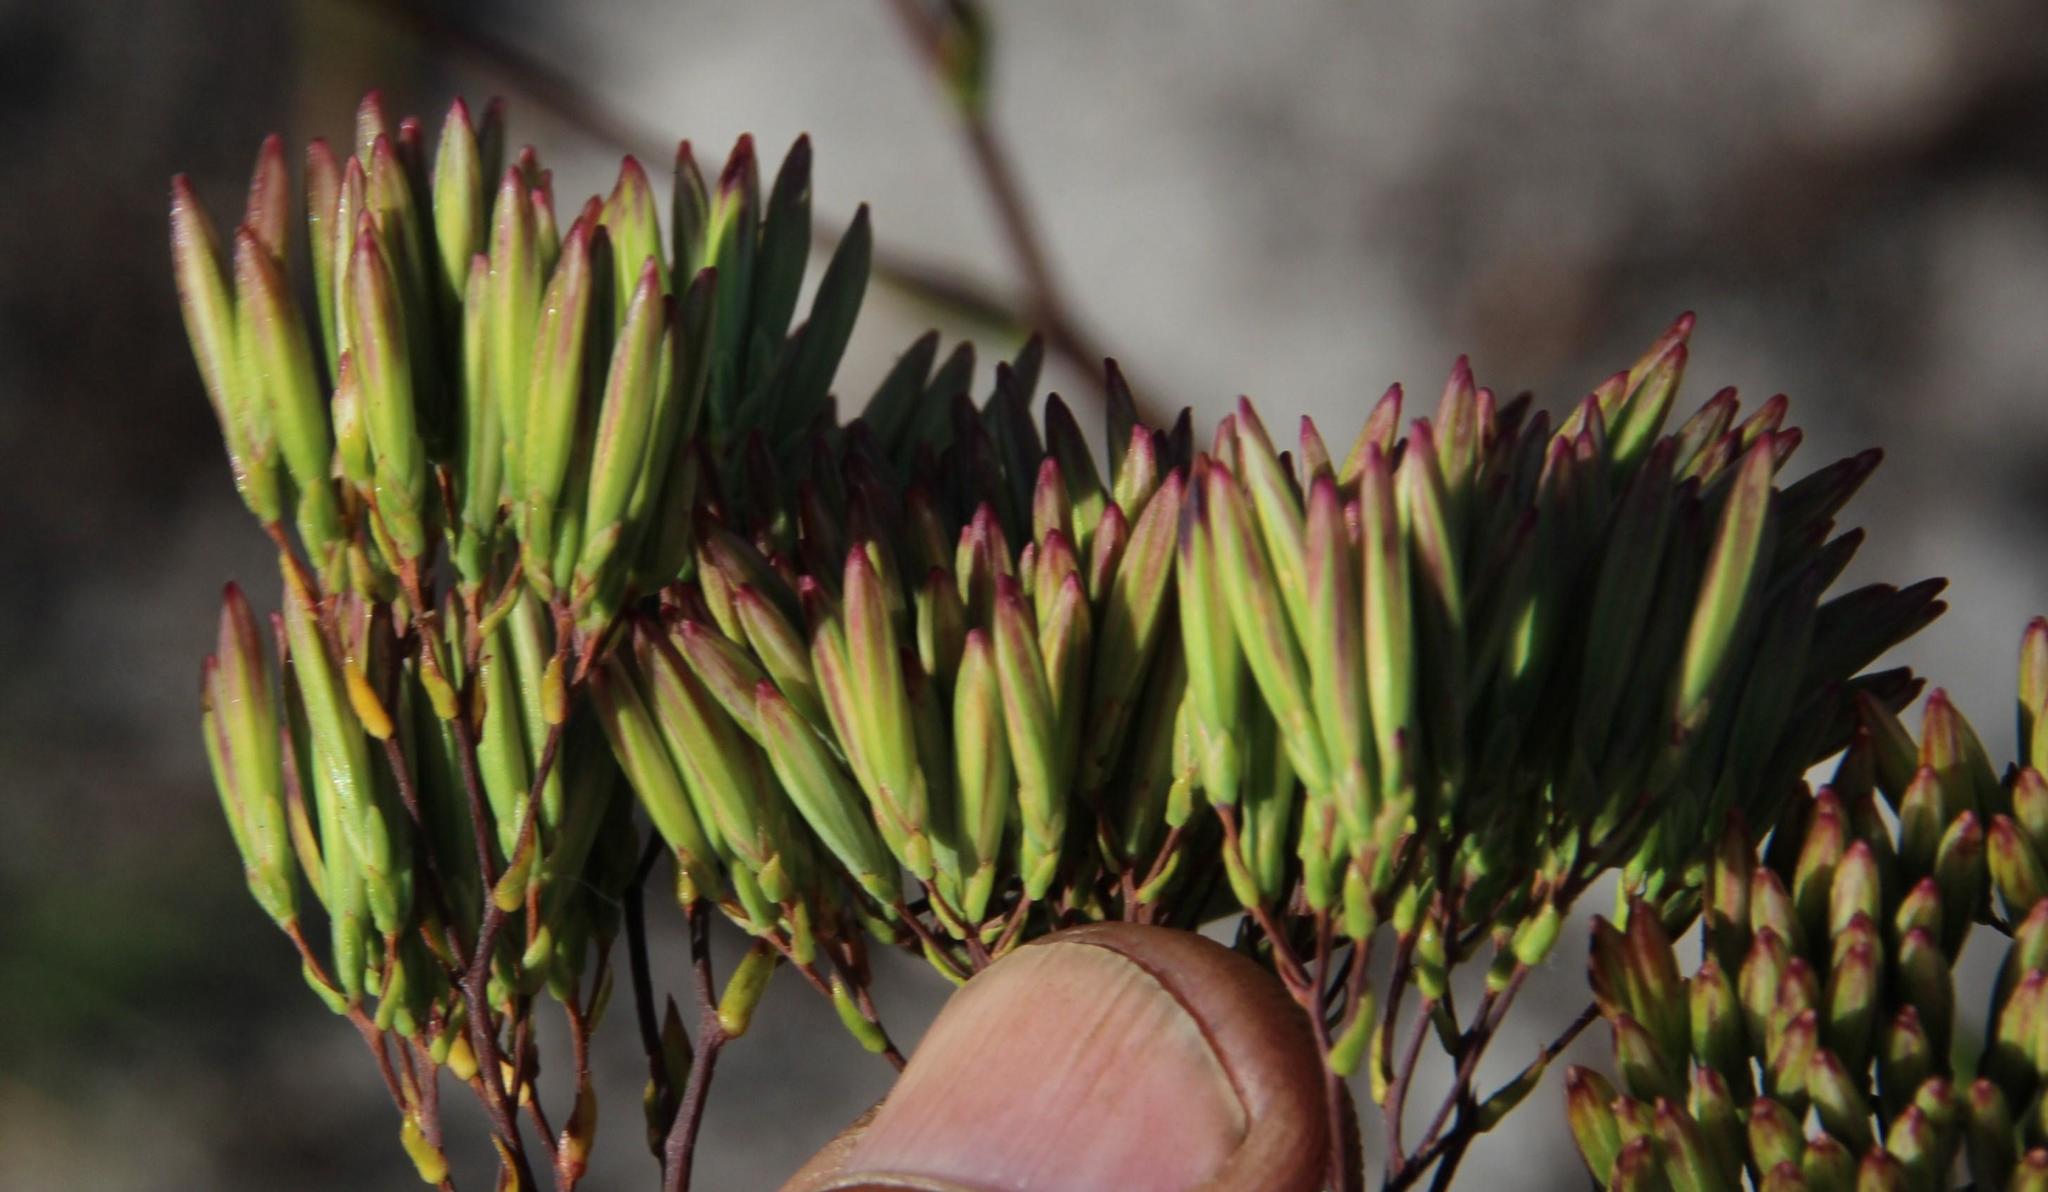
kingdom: Plantae
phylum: Tracheophyta
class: Magnoliopsida
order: Asterales
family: Asteraceae
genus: Corymbium
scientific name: Corymbium glabrum
